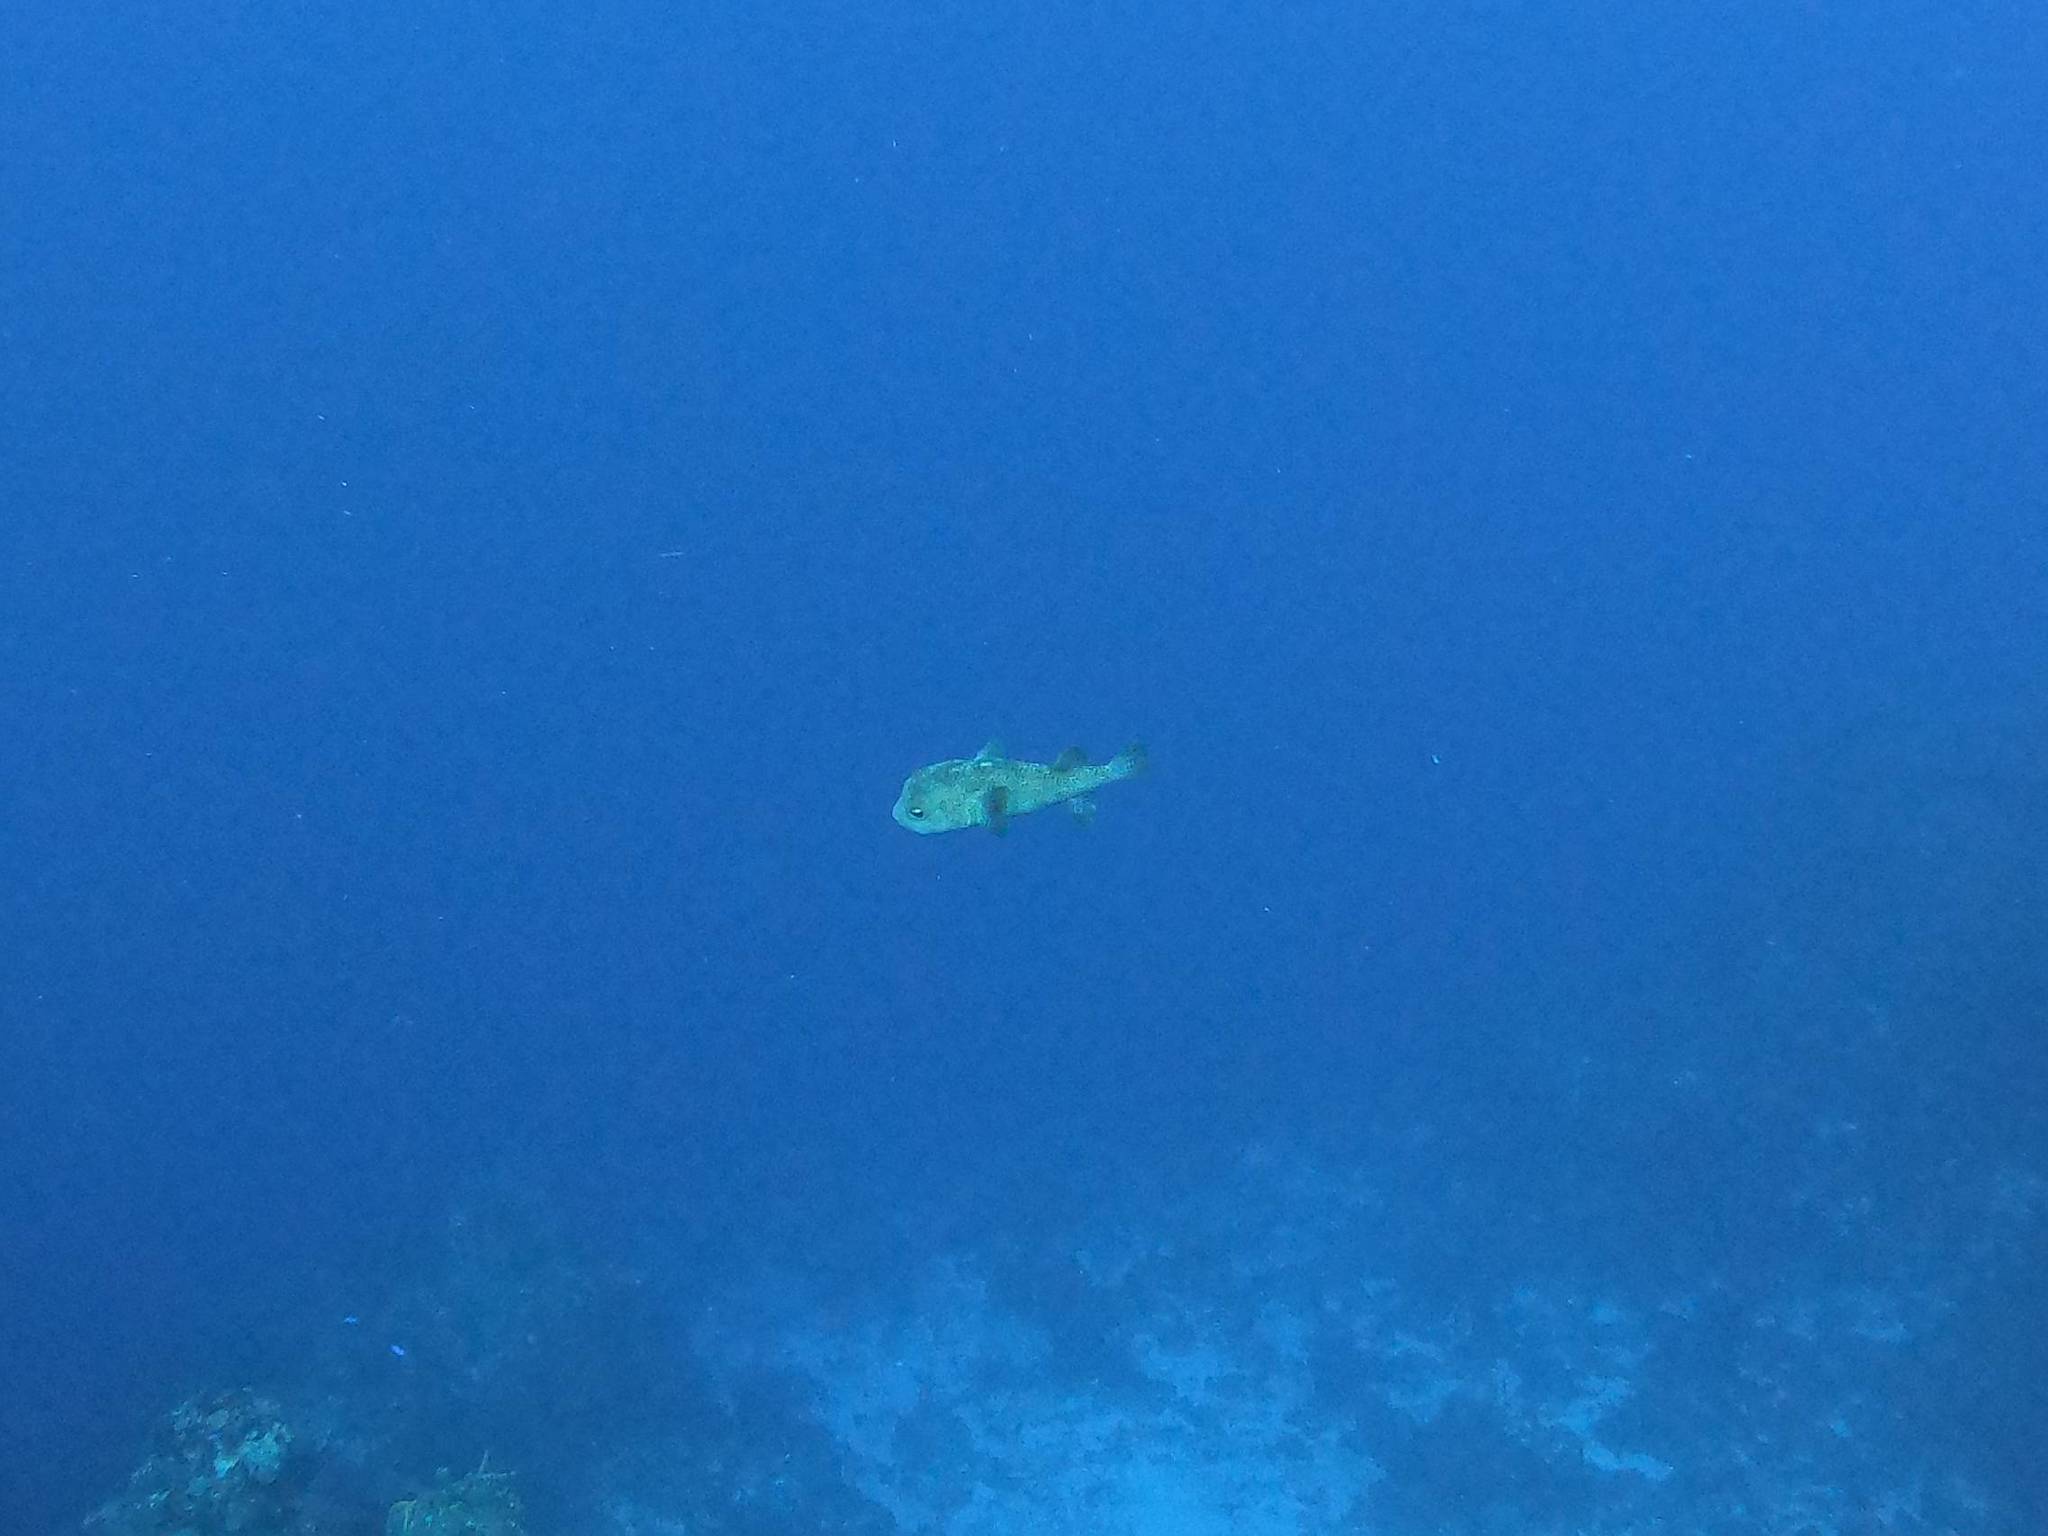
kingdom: Animalia
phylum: Chordata
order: Tetraodontiformes
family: Diodontidae
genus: Diodon
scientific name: Diodon hystrix
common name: Giant porcupinefish
